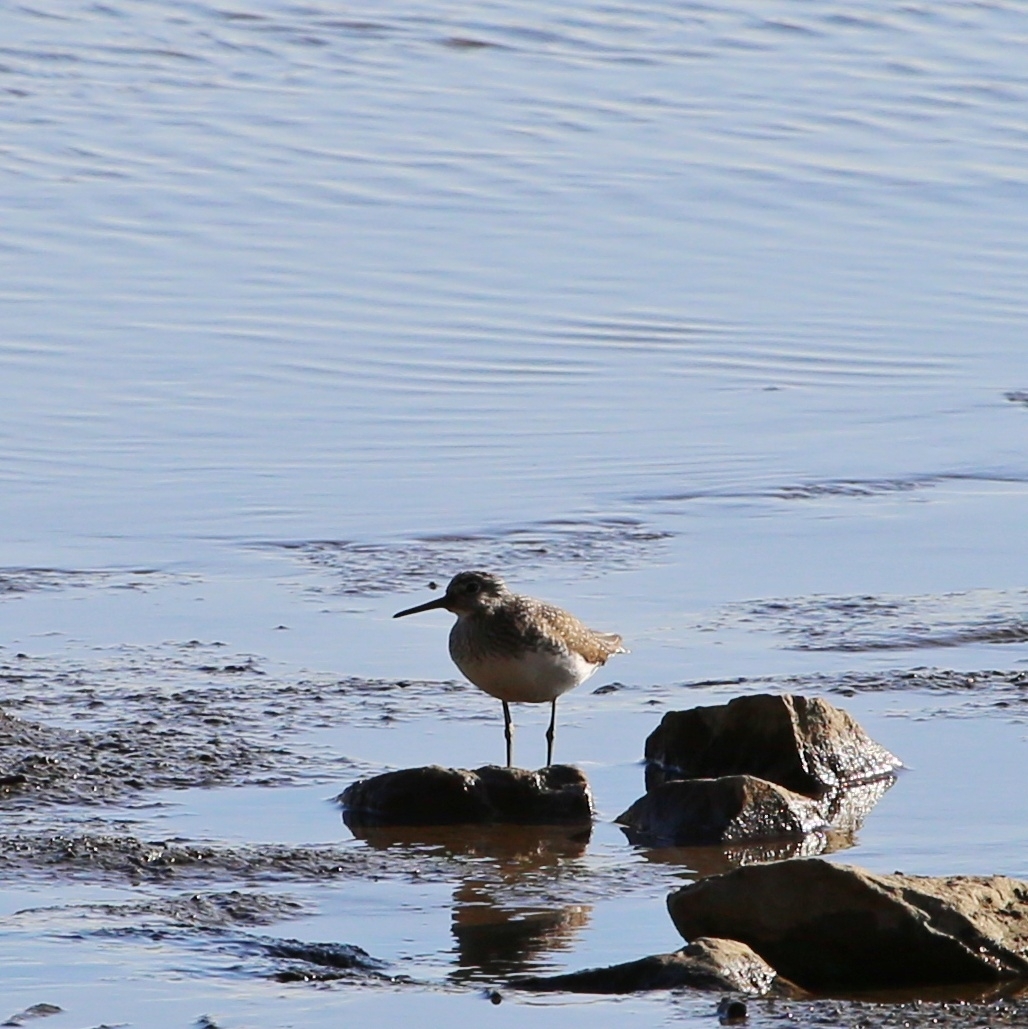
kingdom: Animalia
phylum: Chordata
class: Aves
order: Charadriiformes
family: Scolopacidae
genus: Tringa
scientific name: Tringa ochropus
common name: Green sandpiper
